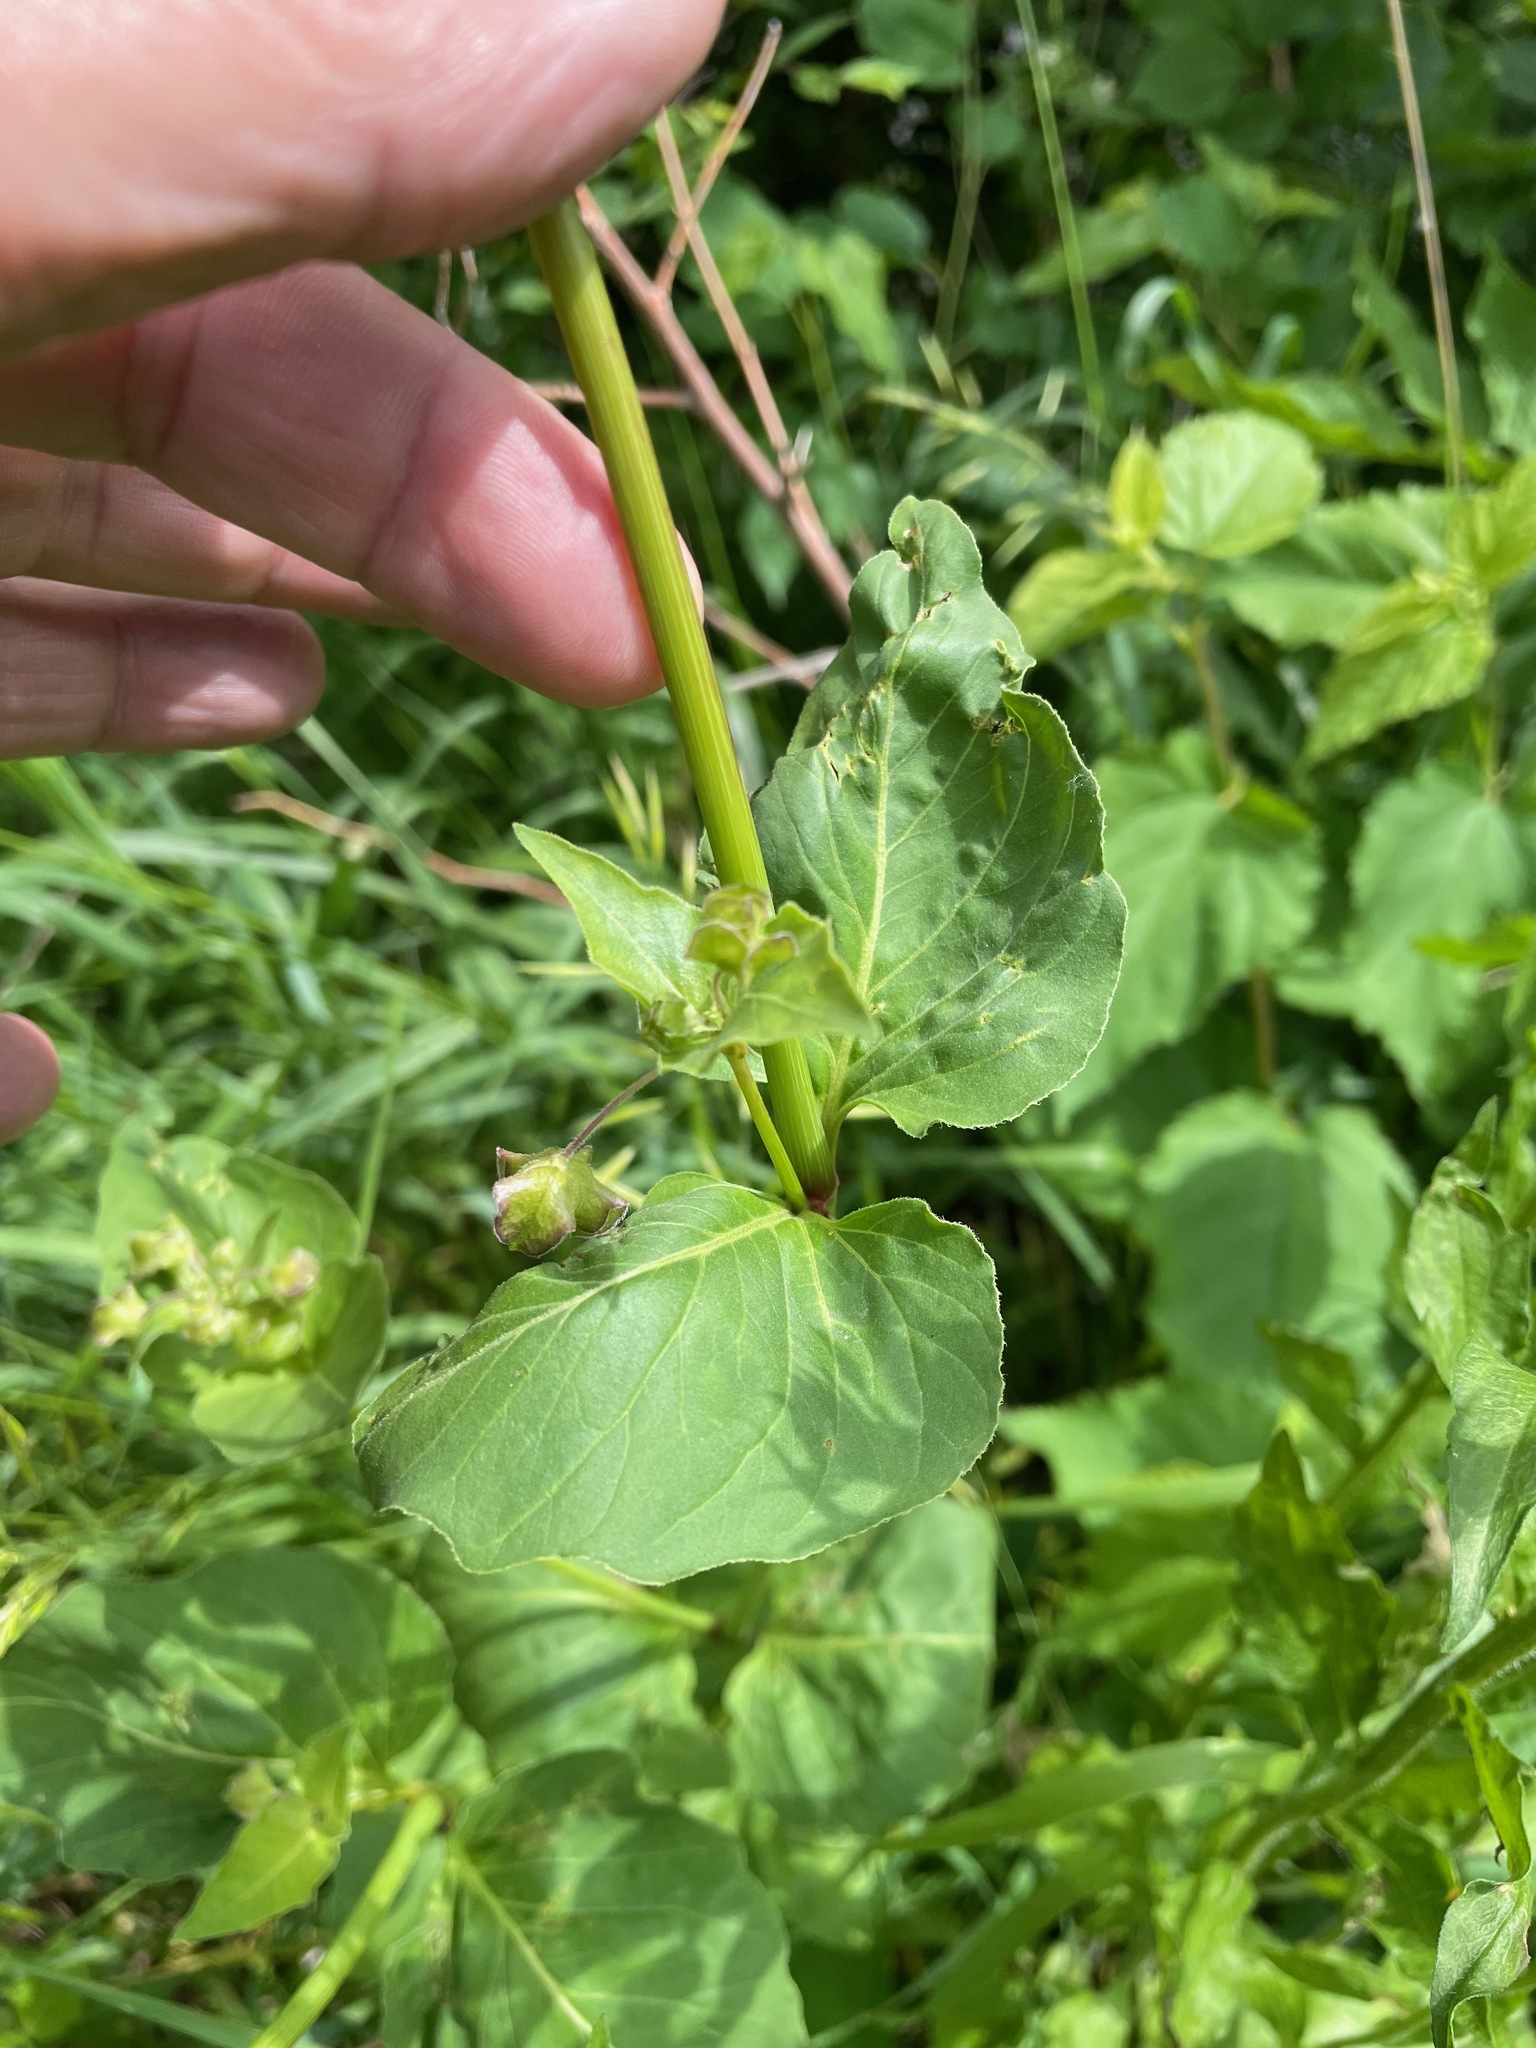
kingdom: Plantae
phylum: Tracheophyta
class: Magnoliopsida
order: Caryophyllales
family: Nyctaginaceae
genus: Mirabilis
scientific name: Mirabilis nyctaginea
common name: Umbrella wort
